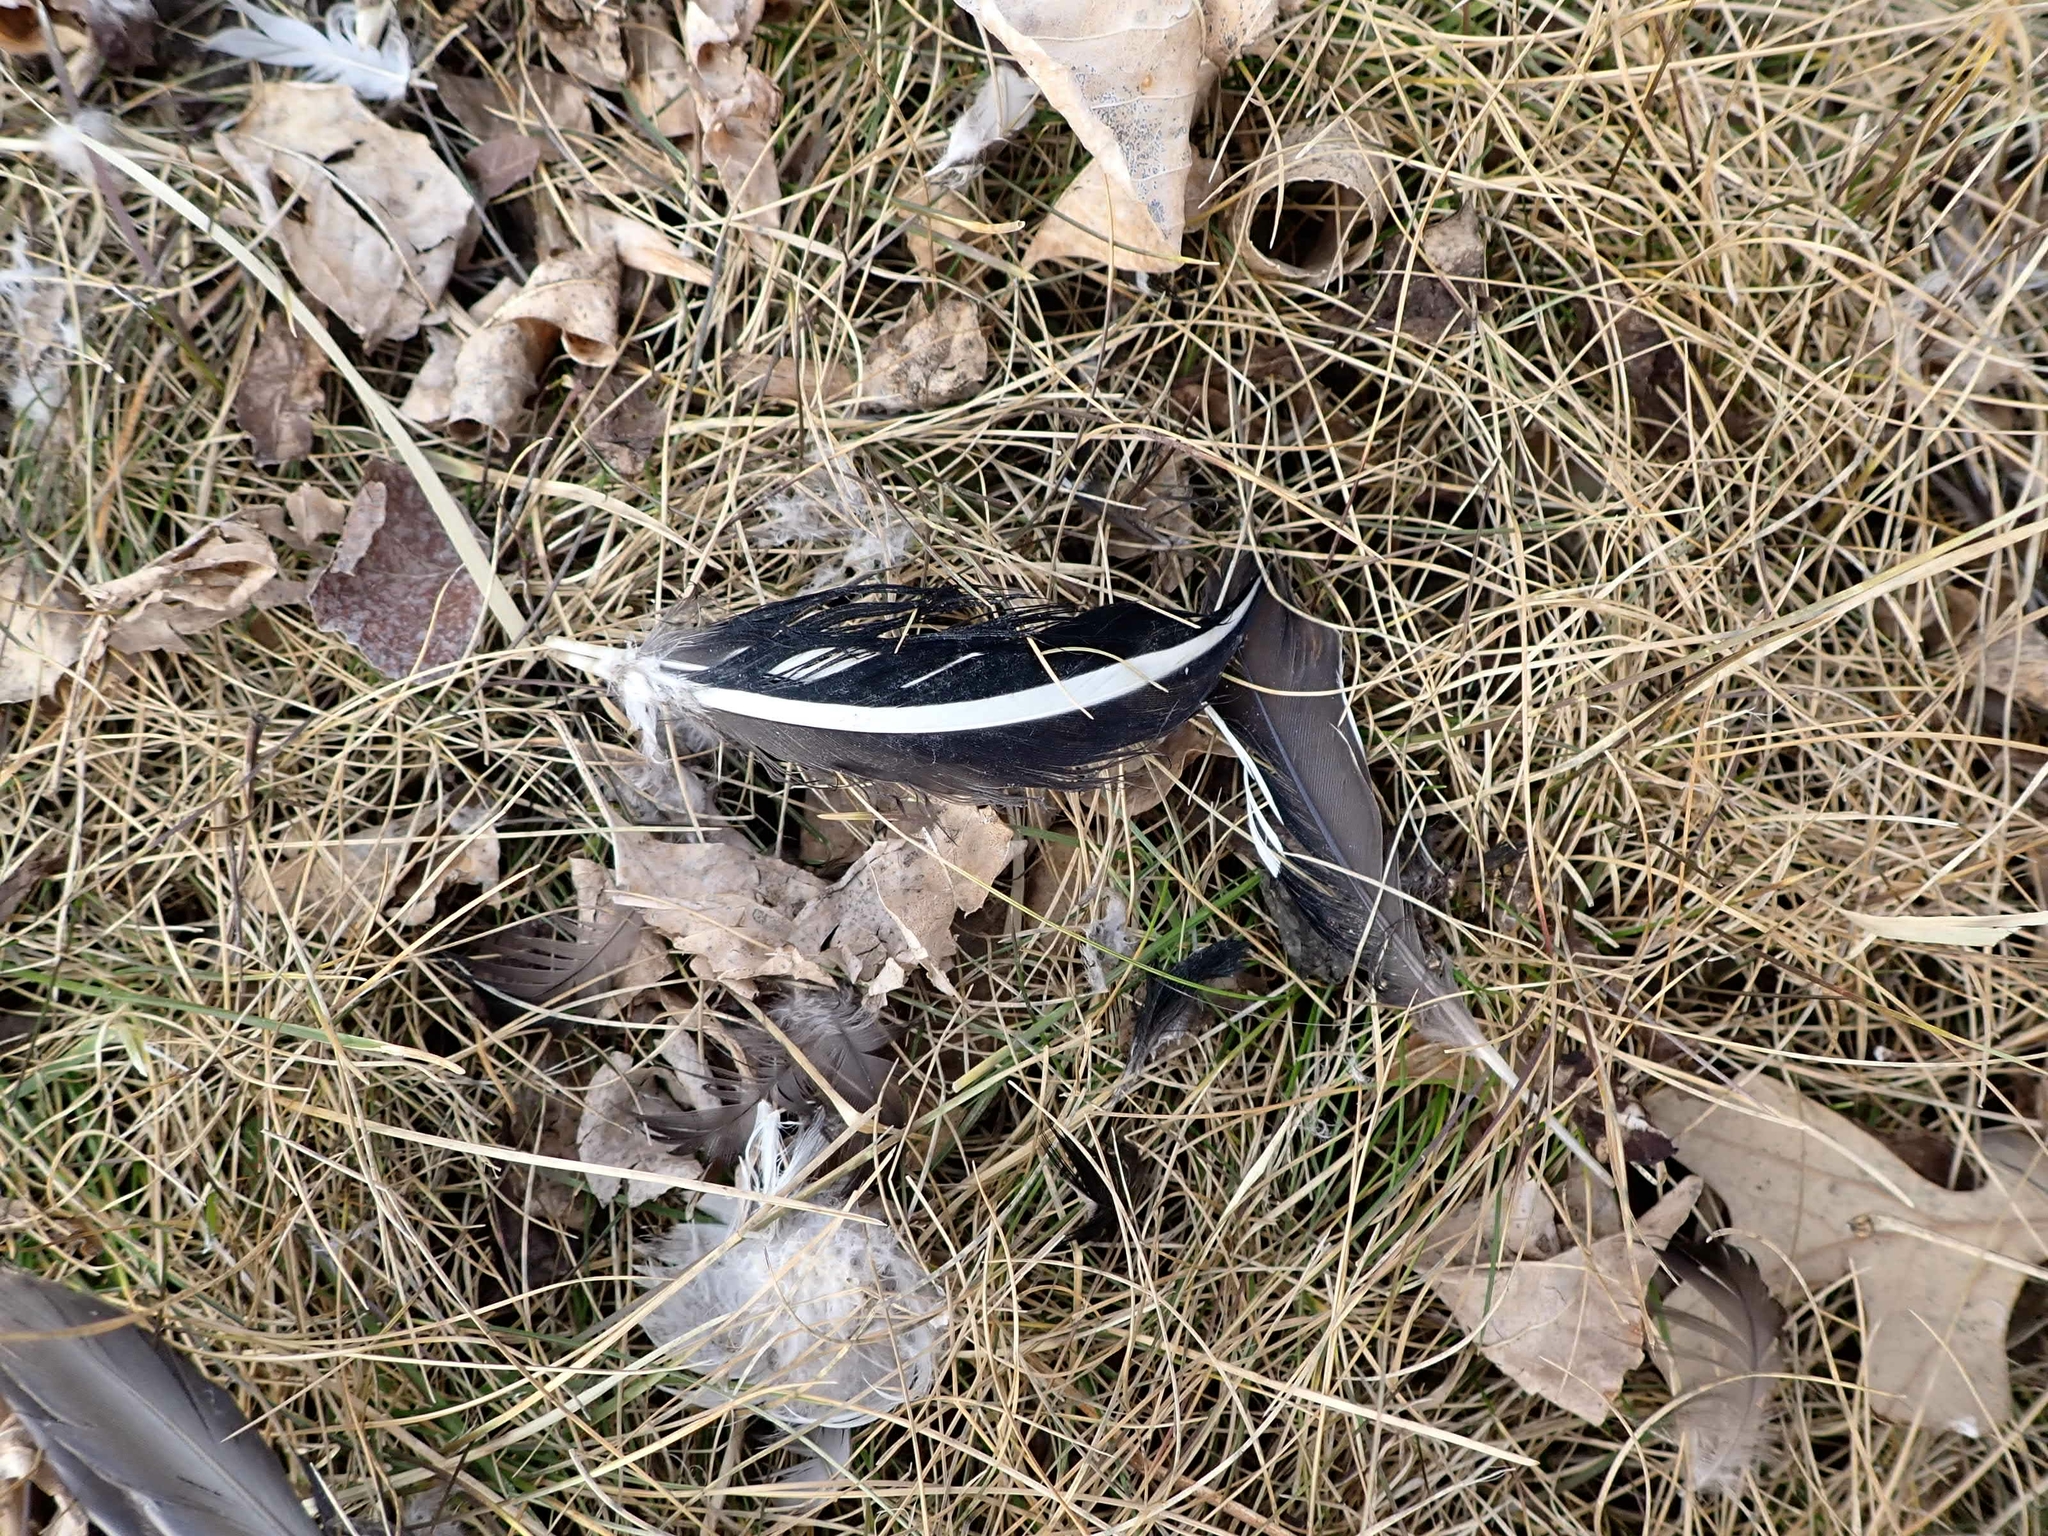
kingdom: Animalia
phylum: Chordata
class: Aves
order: Anseriformes
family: Anatidae
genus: Lophodytes
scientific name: Lophodytes cucullatus
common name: Hooded merganser
